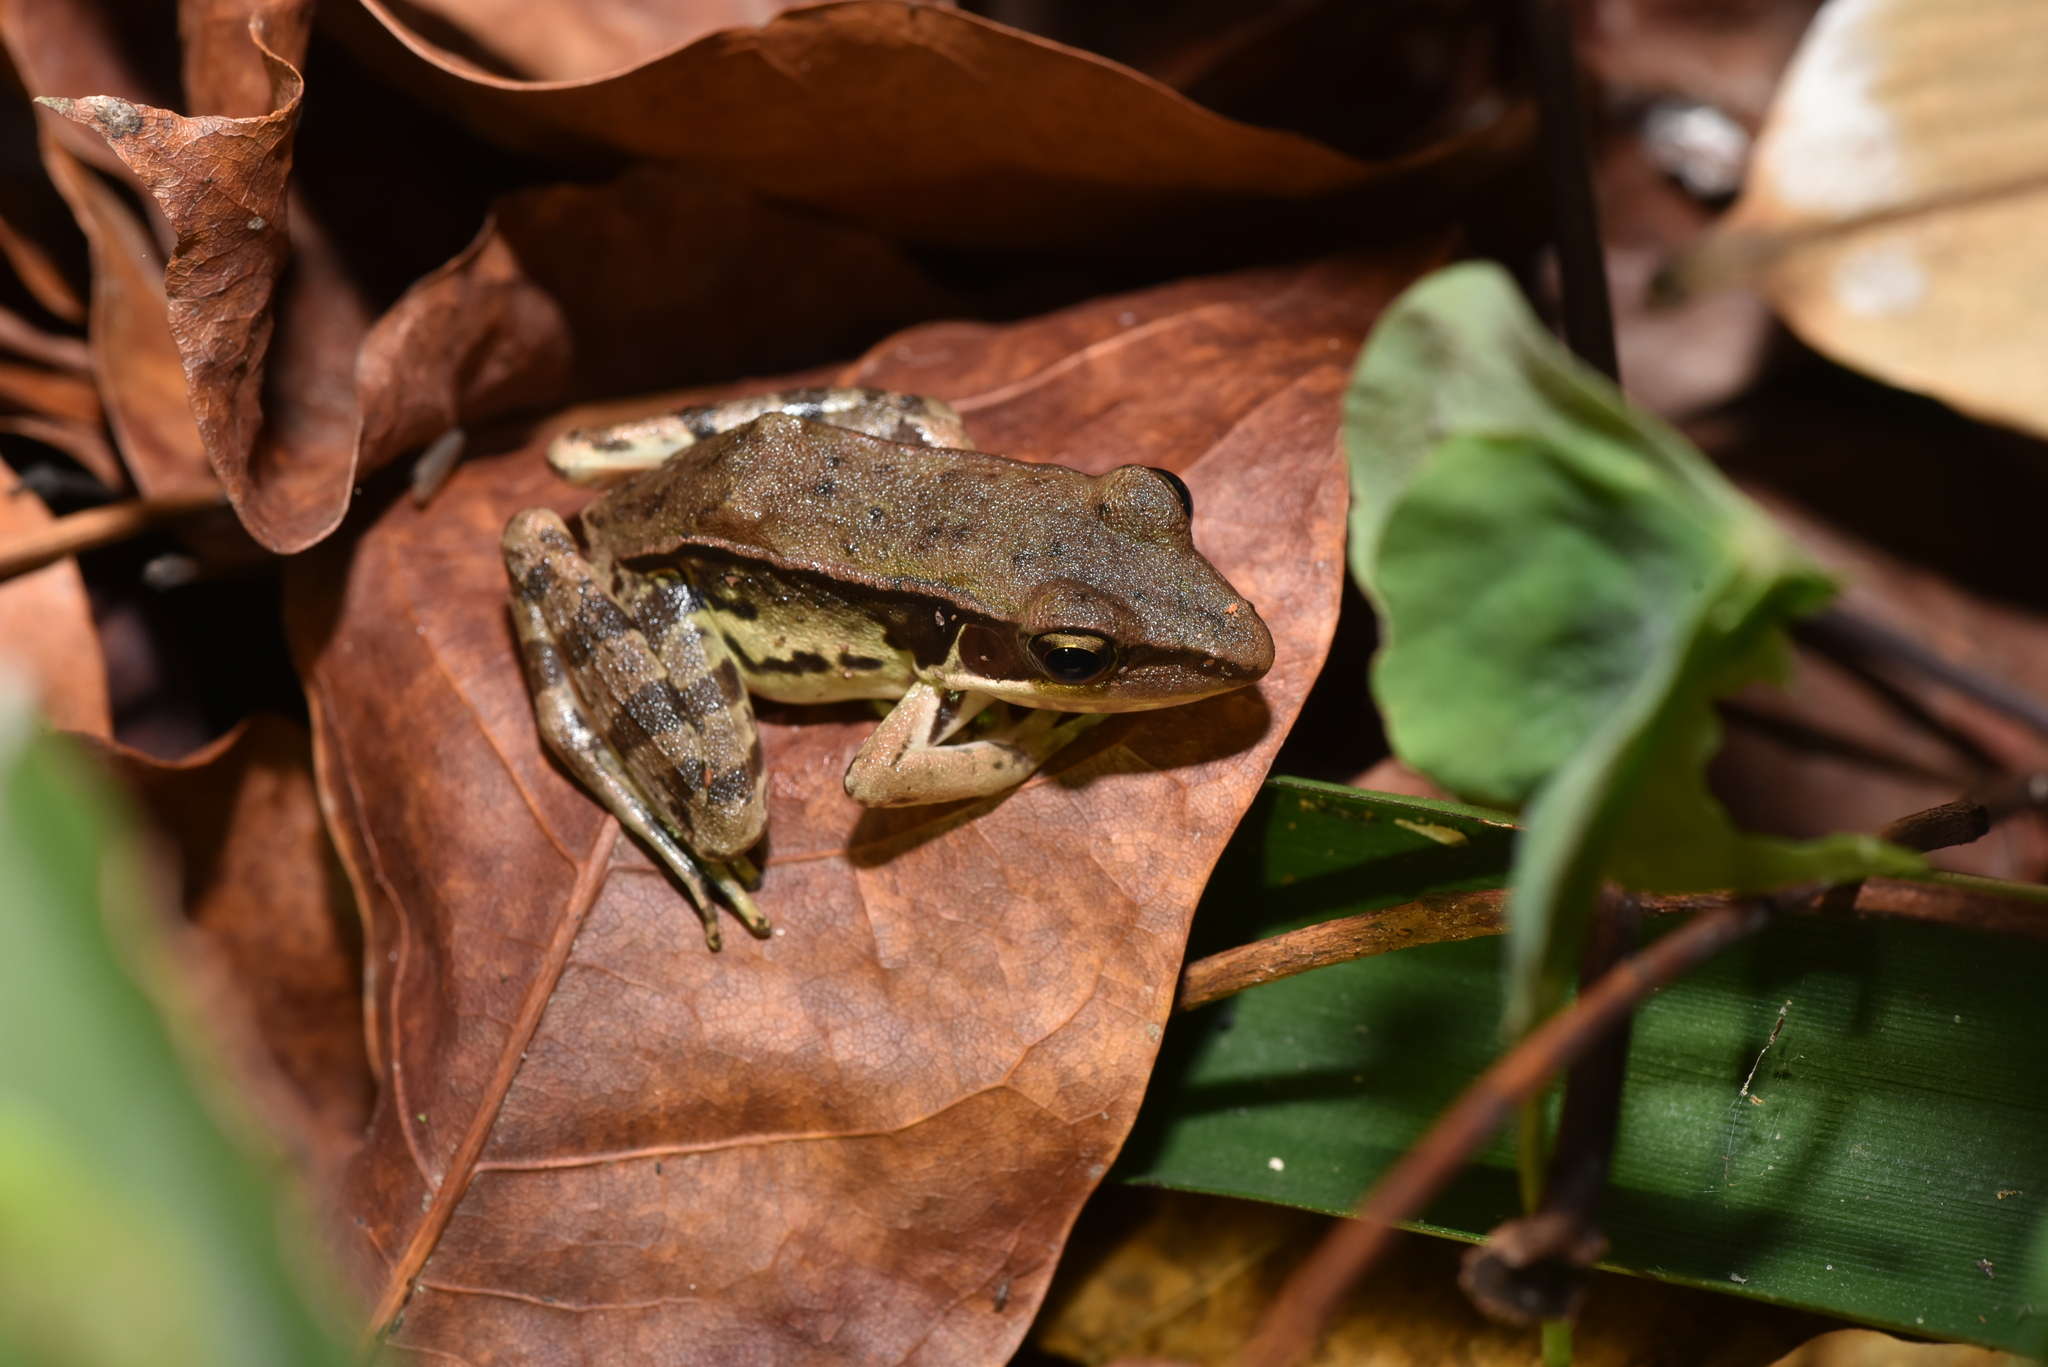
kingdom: Animalia
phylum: Chordata
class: Amphibia
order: Anura
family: Ranidae
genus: Sylvirana
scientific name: Sylvirana guentheri
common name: Guenther's amoy frog
